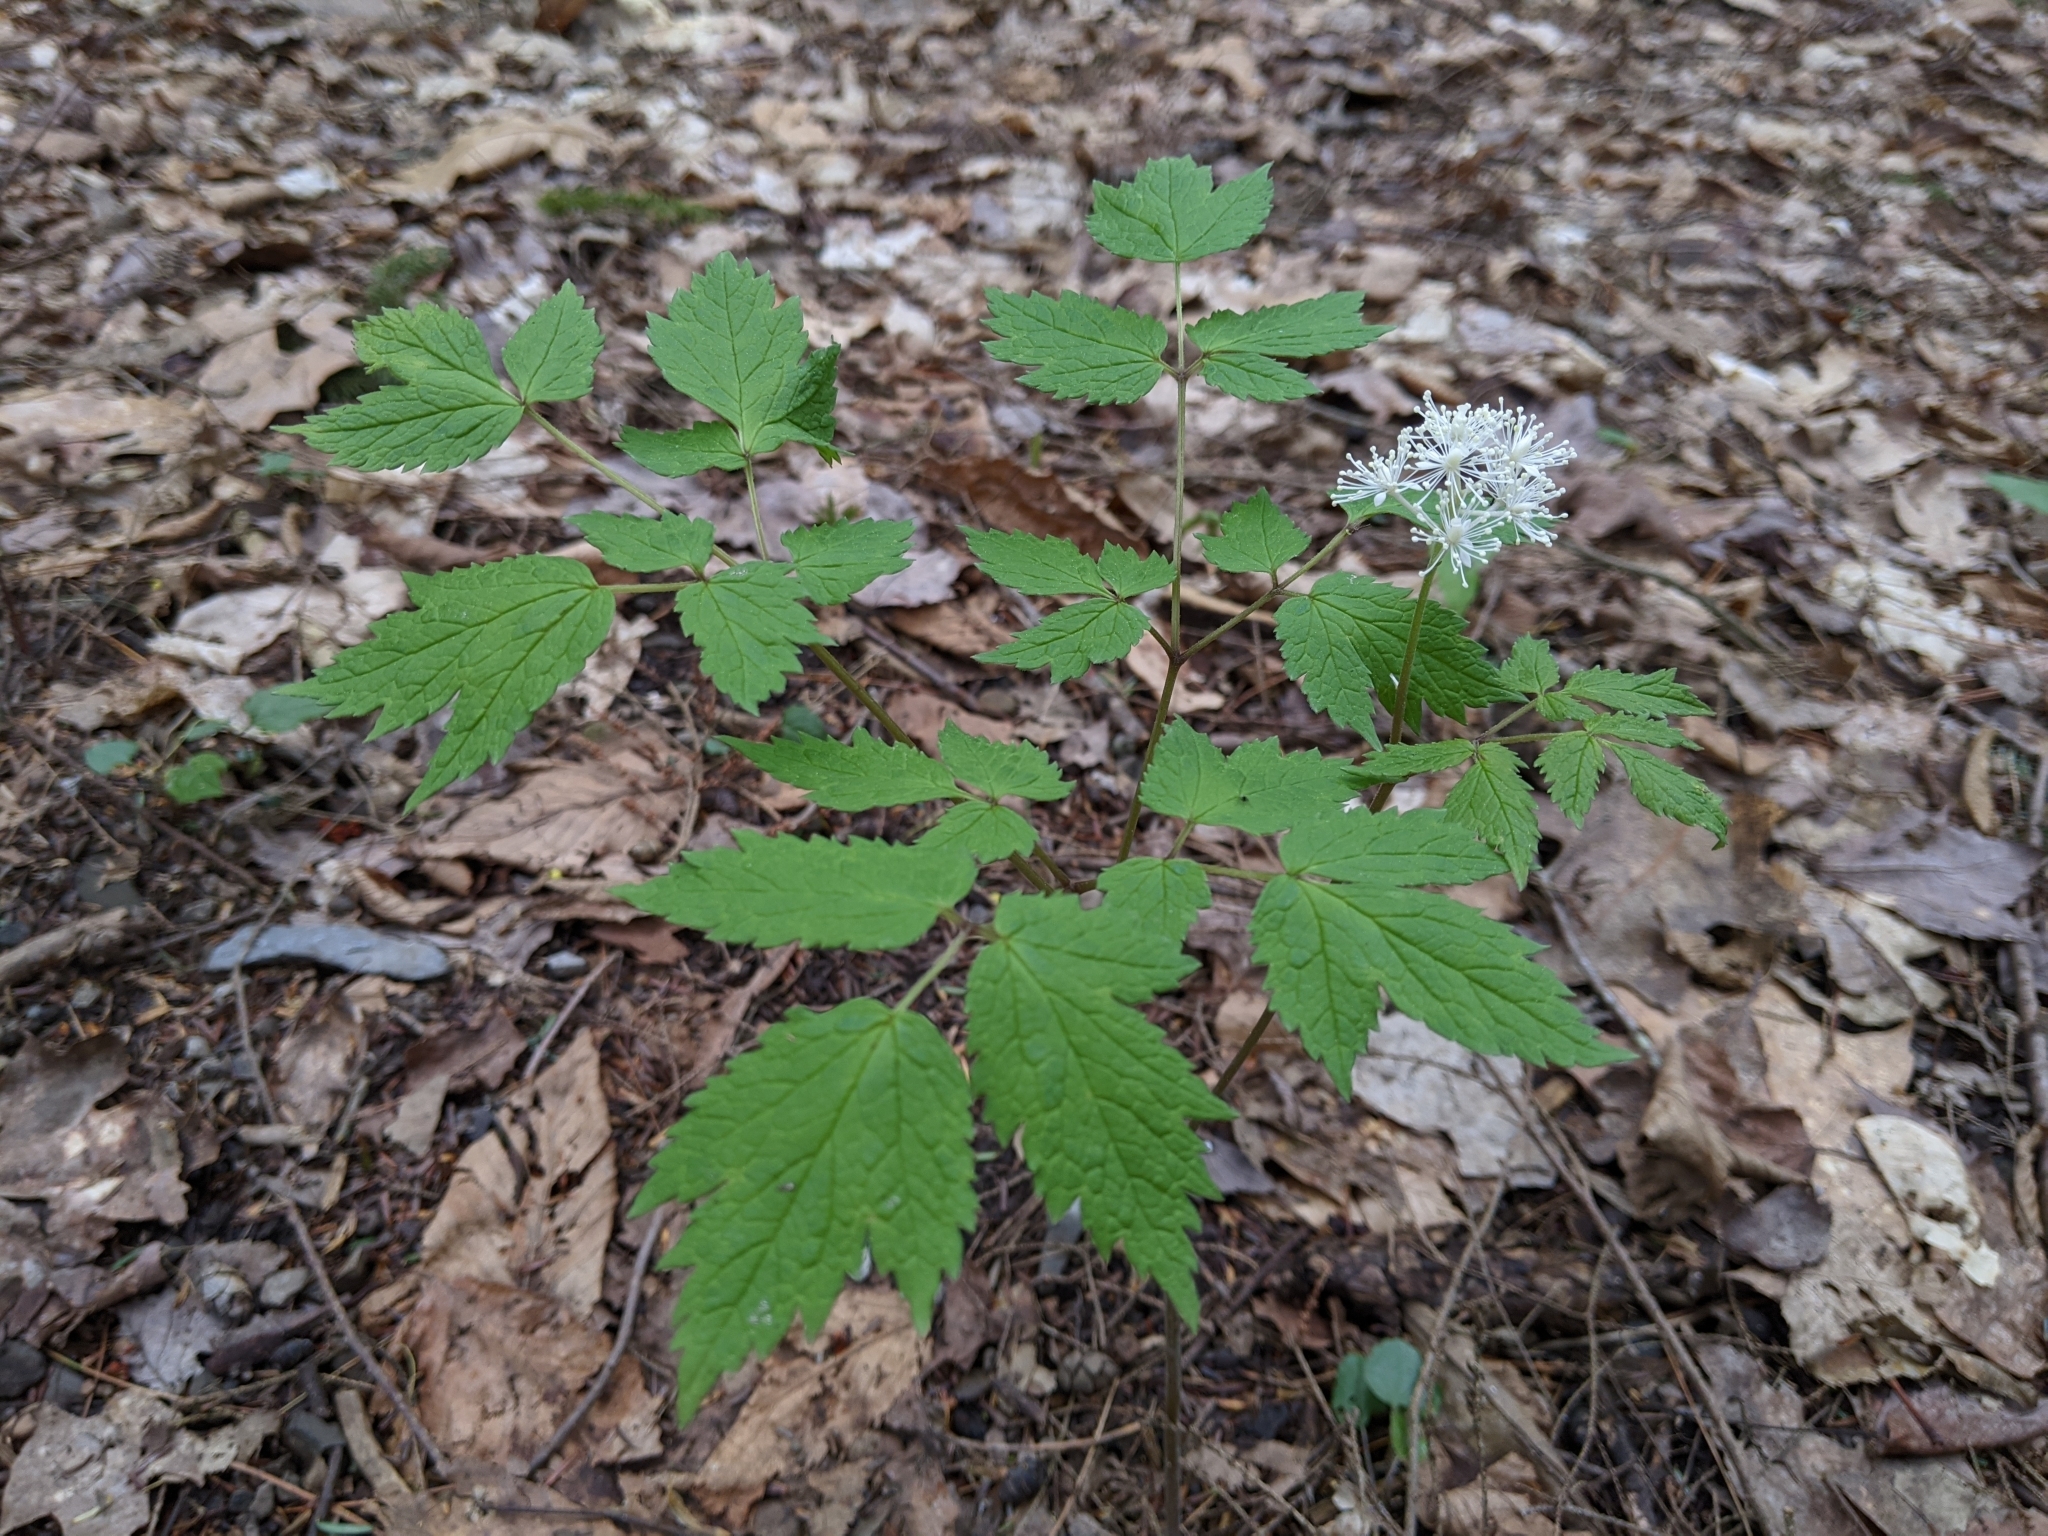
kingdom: Plantae
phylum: Tracheophyta
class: Magnoliopsida
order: Ranunculales
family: Ranunculaceae
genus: Actaea
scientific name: Actaea rubra
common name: Red baneberry
